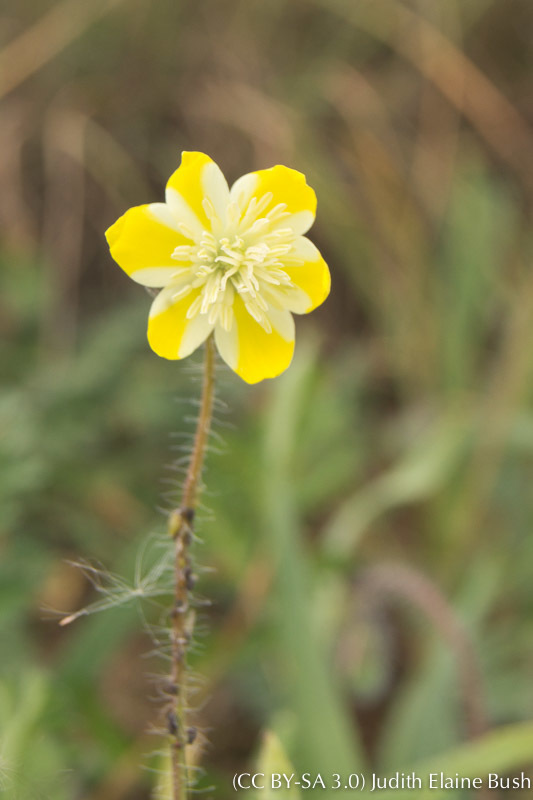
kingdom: Plantae
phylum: Tracheophyta
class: Magnoliopsida
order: Ranunculales
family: Papaveraceae
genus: Platystemon
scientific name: Platystemon californicus
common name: Cream-cups
